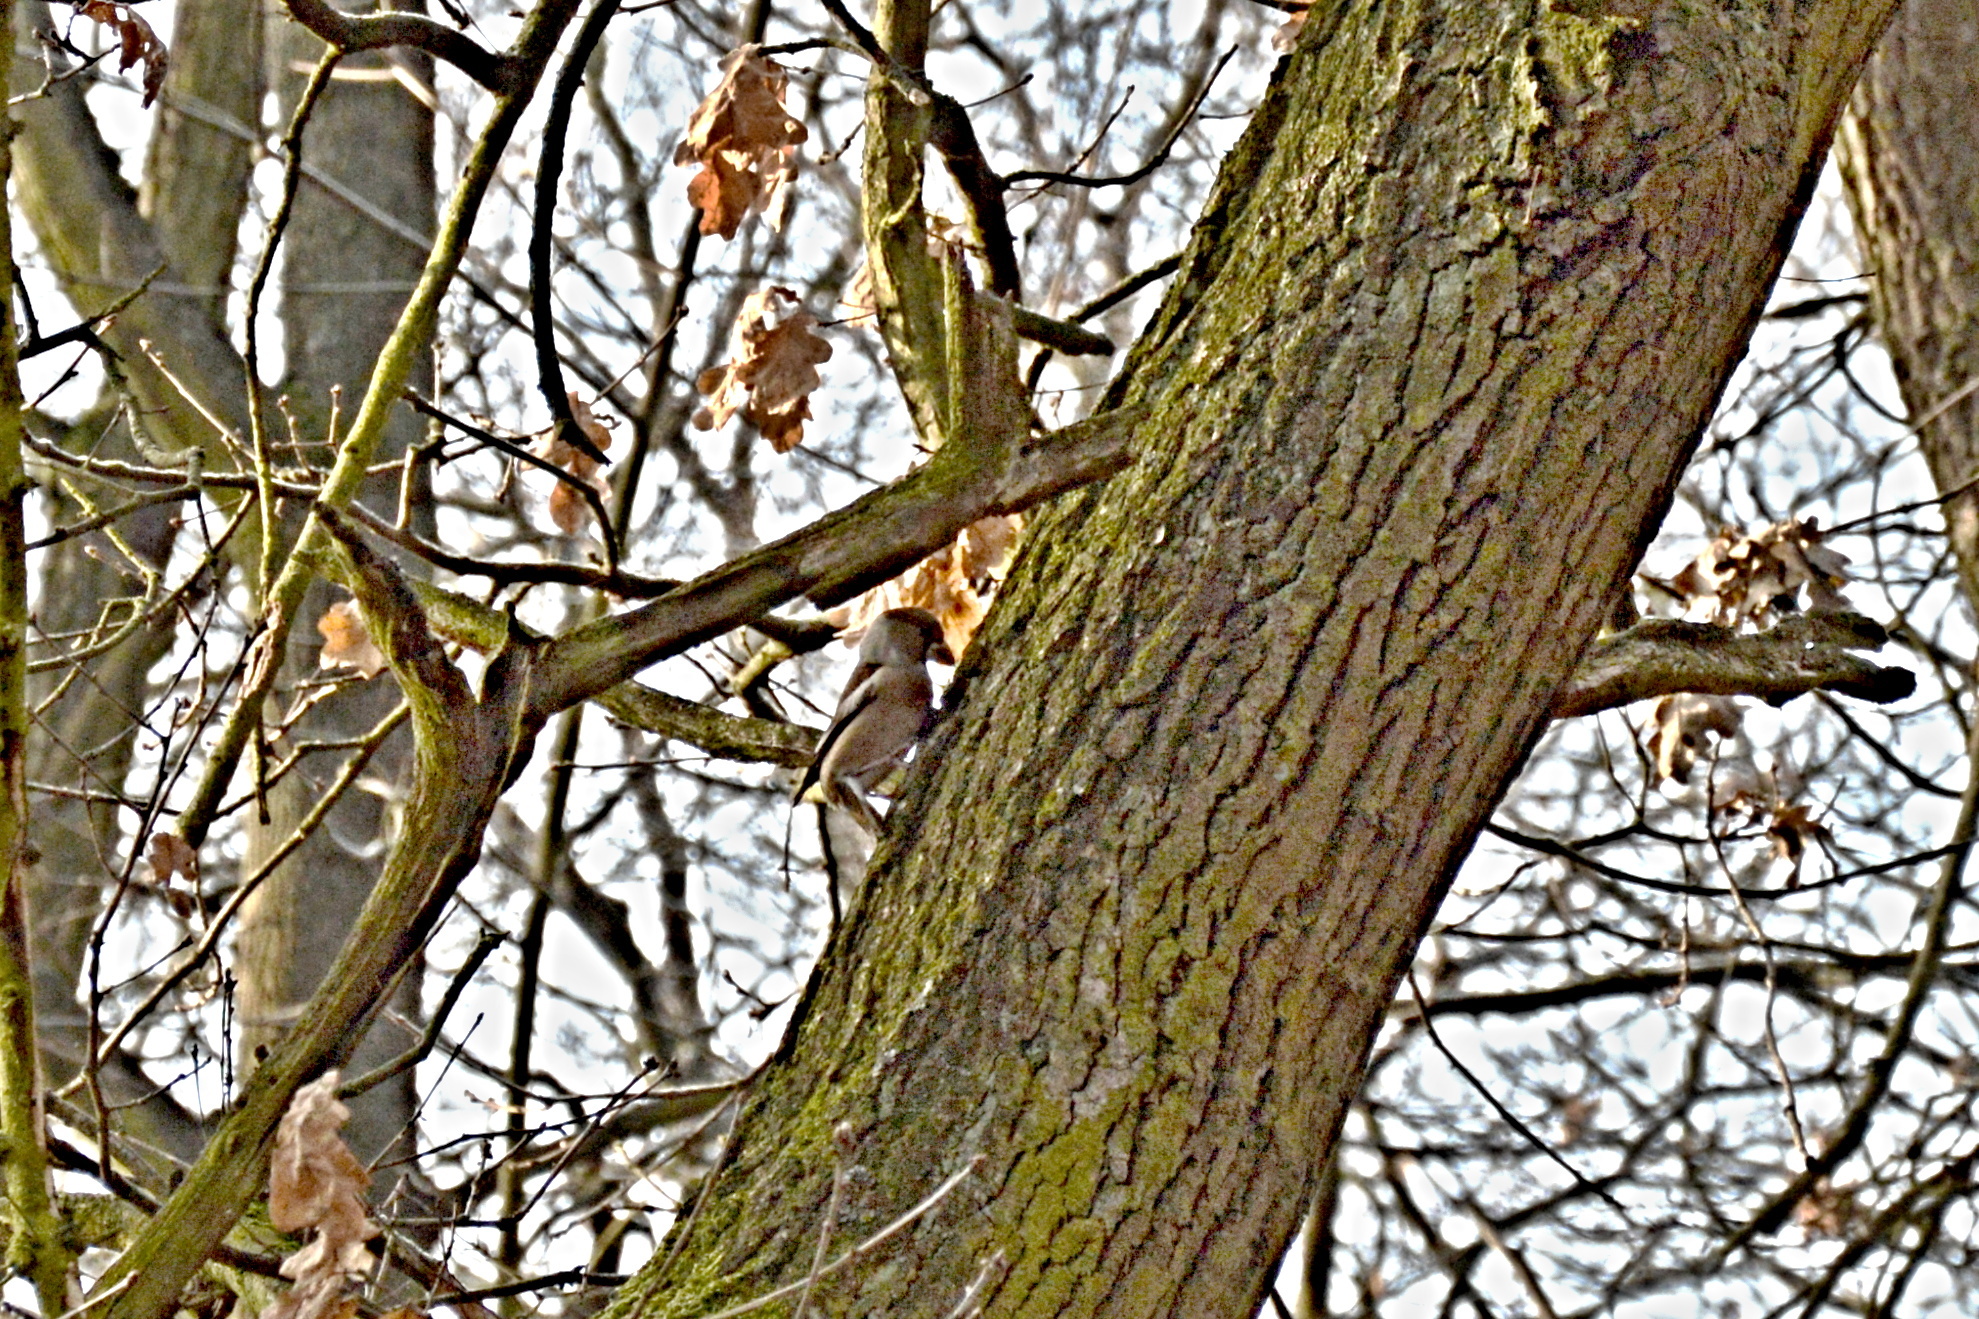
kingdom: Animalia
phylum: Chordata
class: Aves
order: Passeriformes
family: Fringillidae
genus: Coccothraustes
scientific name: Coccothraustes coccothraustes
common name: Hawfinch
